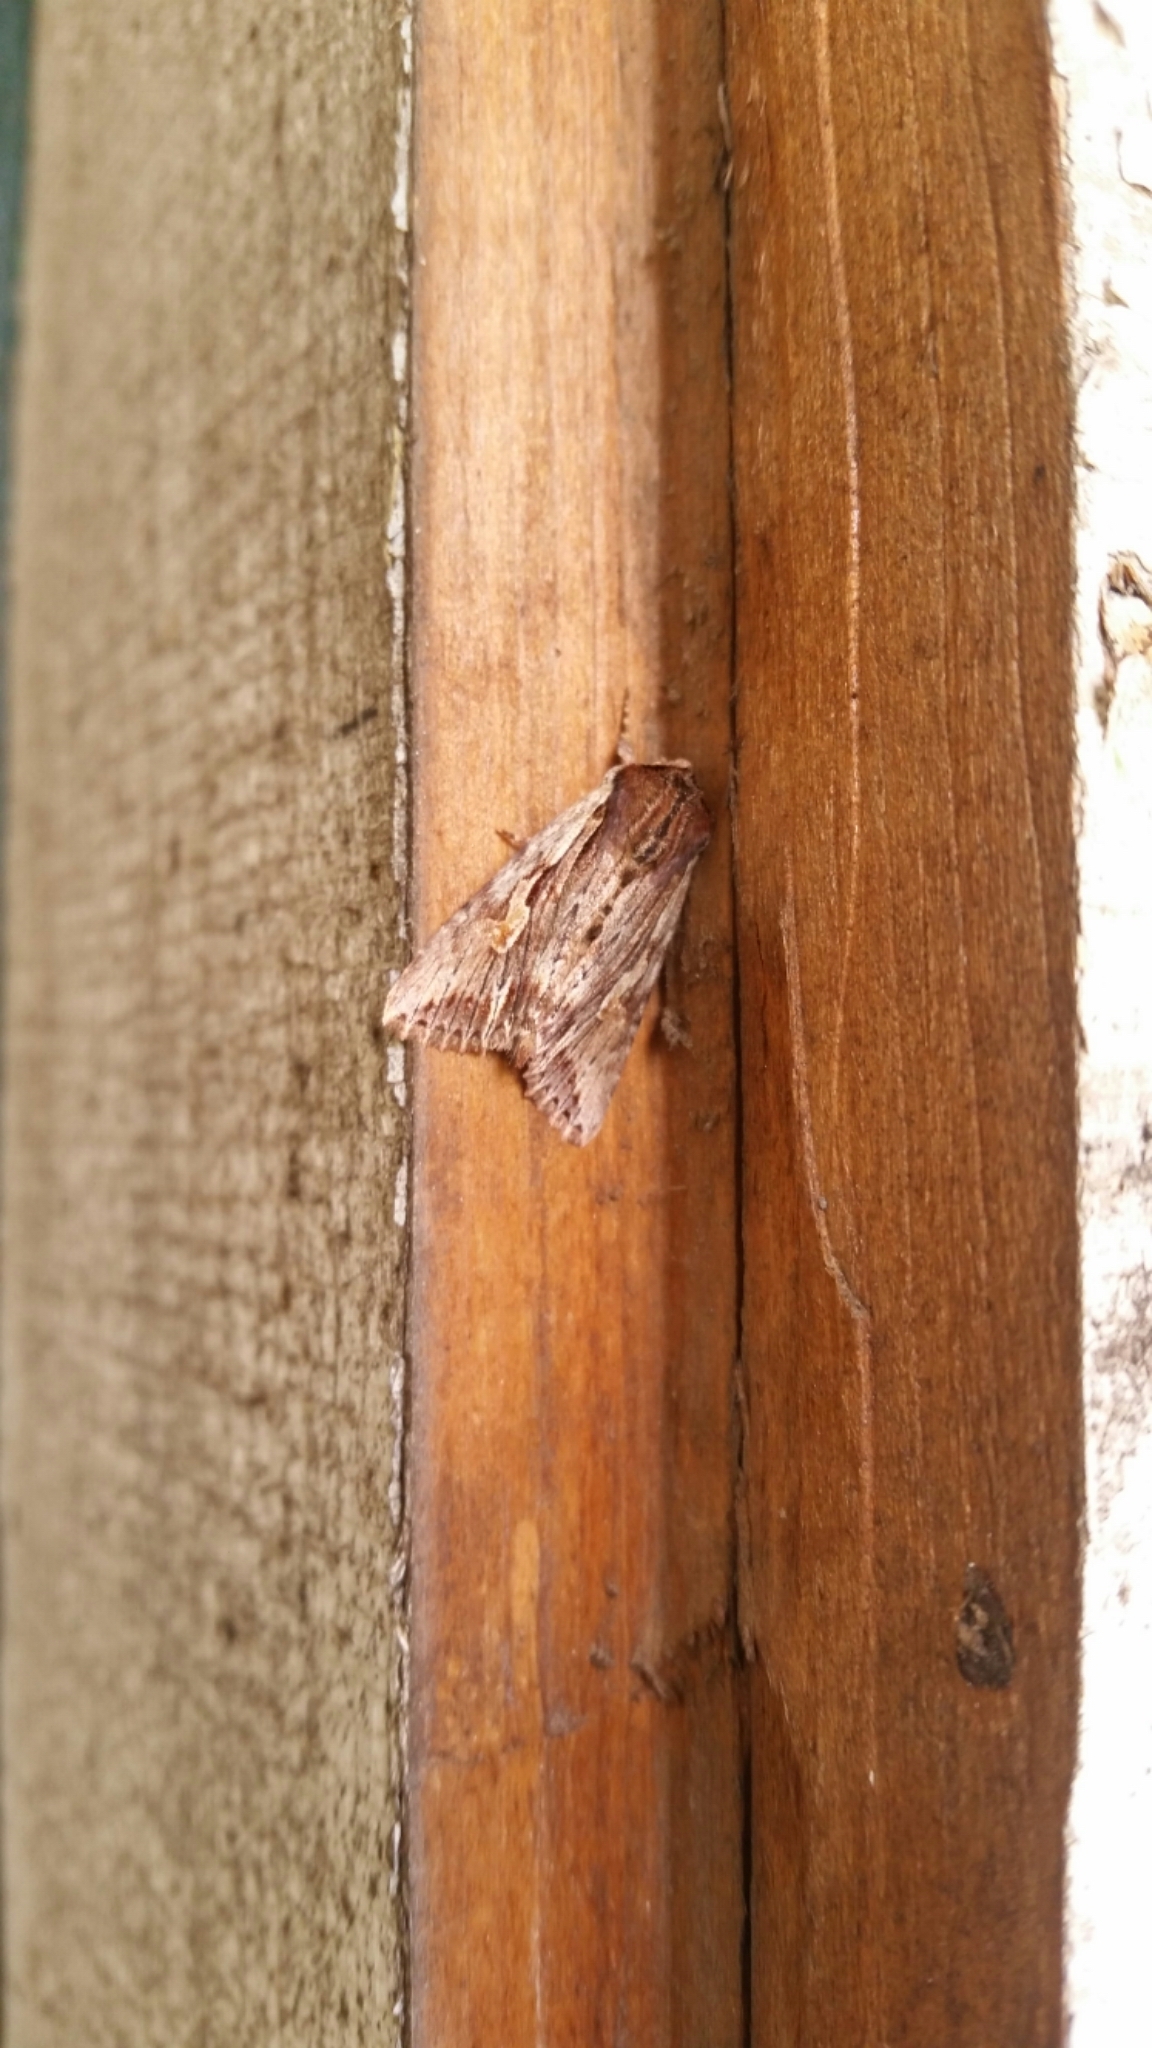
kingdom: Animalia
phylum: Arthropoda
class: Insecta
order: Lepidoptera
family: Noctuidae
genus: Achatia
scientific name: Achatia evicta
